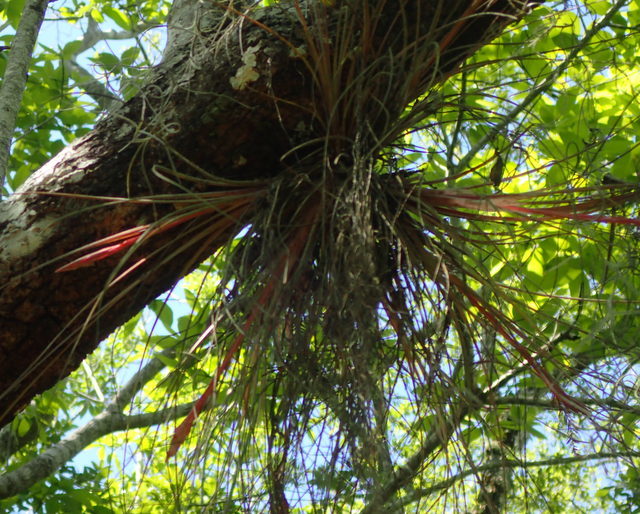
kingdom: Plantae
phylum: Tracheophyta
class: Liliopsida
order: Poales
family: Bromeliaceae
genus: Tillandsia
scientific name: Tillandsia bartramii
